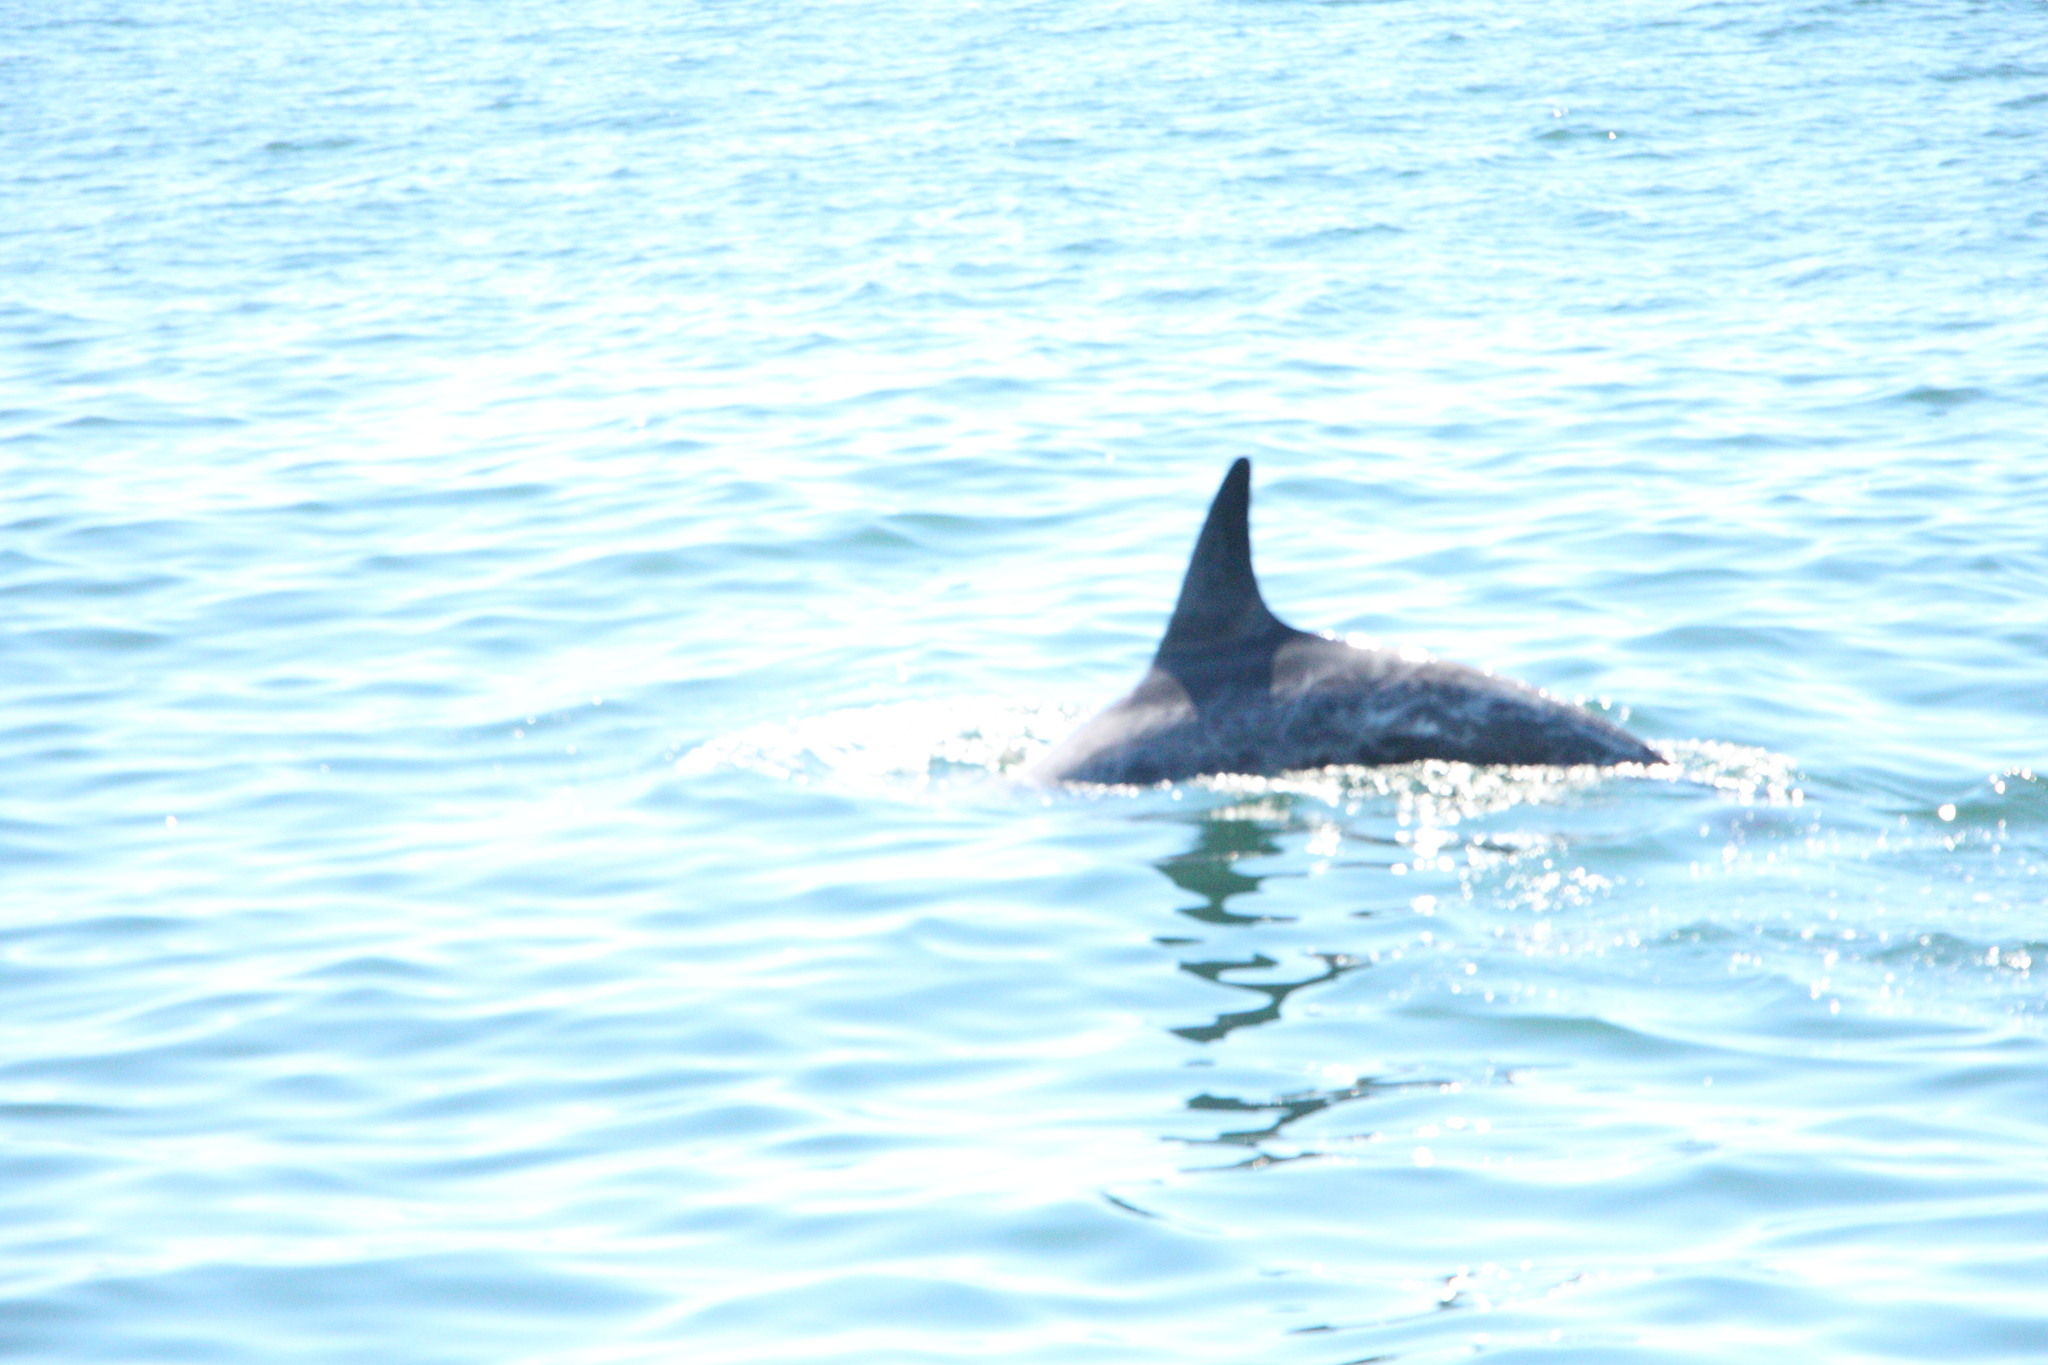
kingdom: Animalia
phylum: Chordata
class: Mammalia
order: Cetacea
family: Delphinidae
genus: Grampus
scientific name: Grampus griseus
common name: Risso's dolphin
